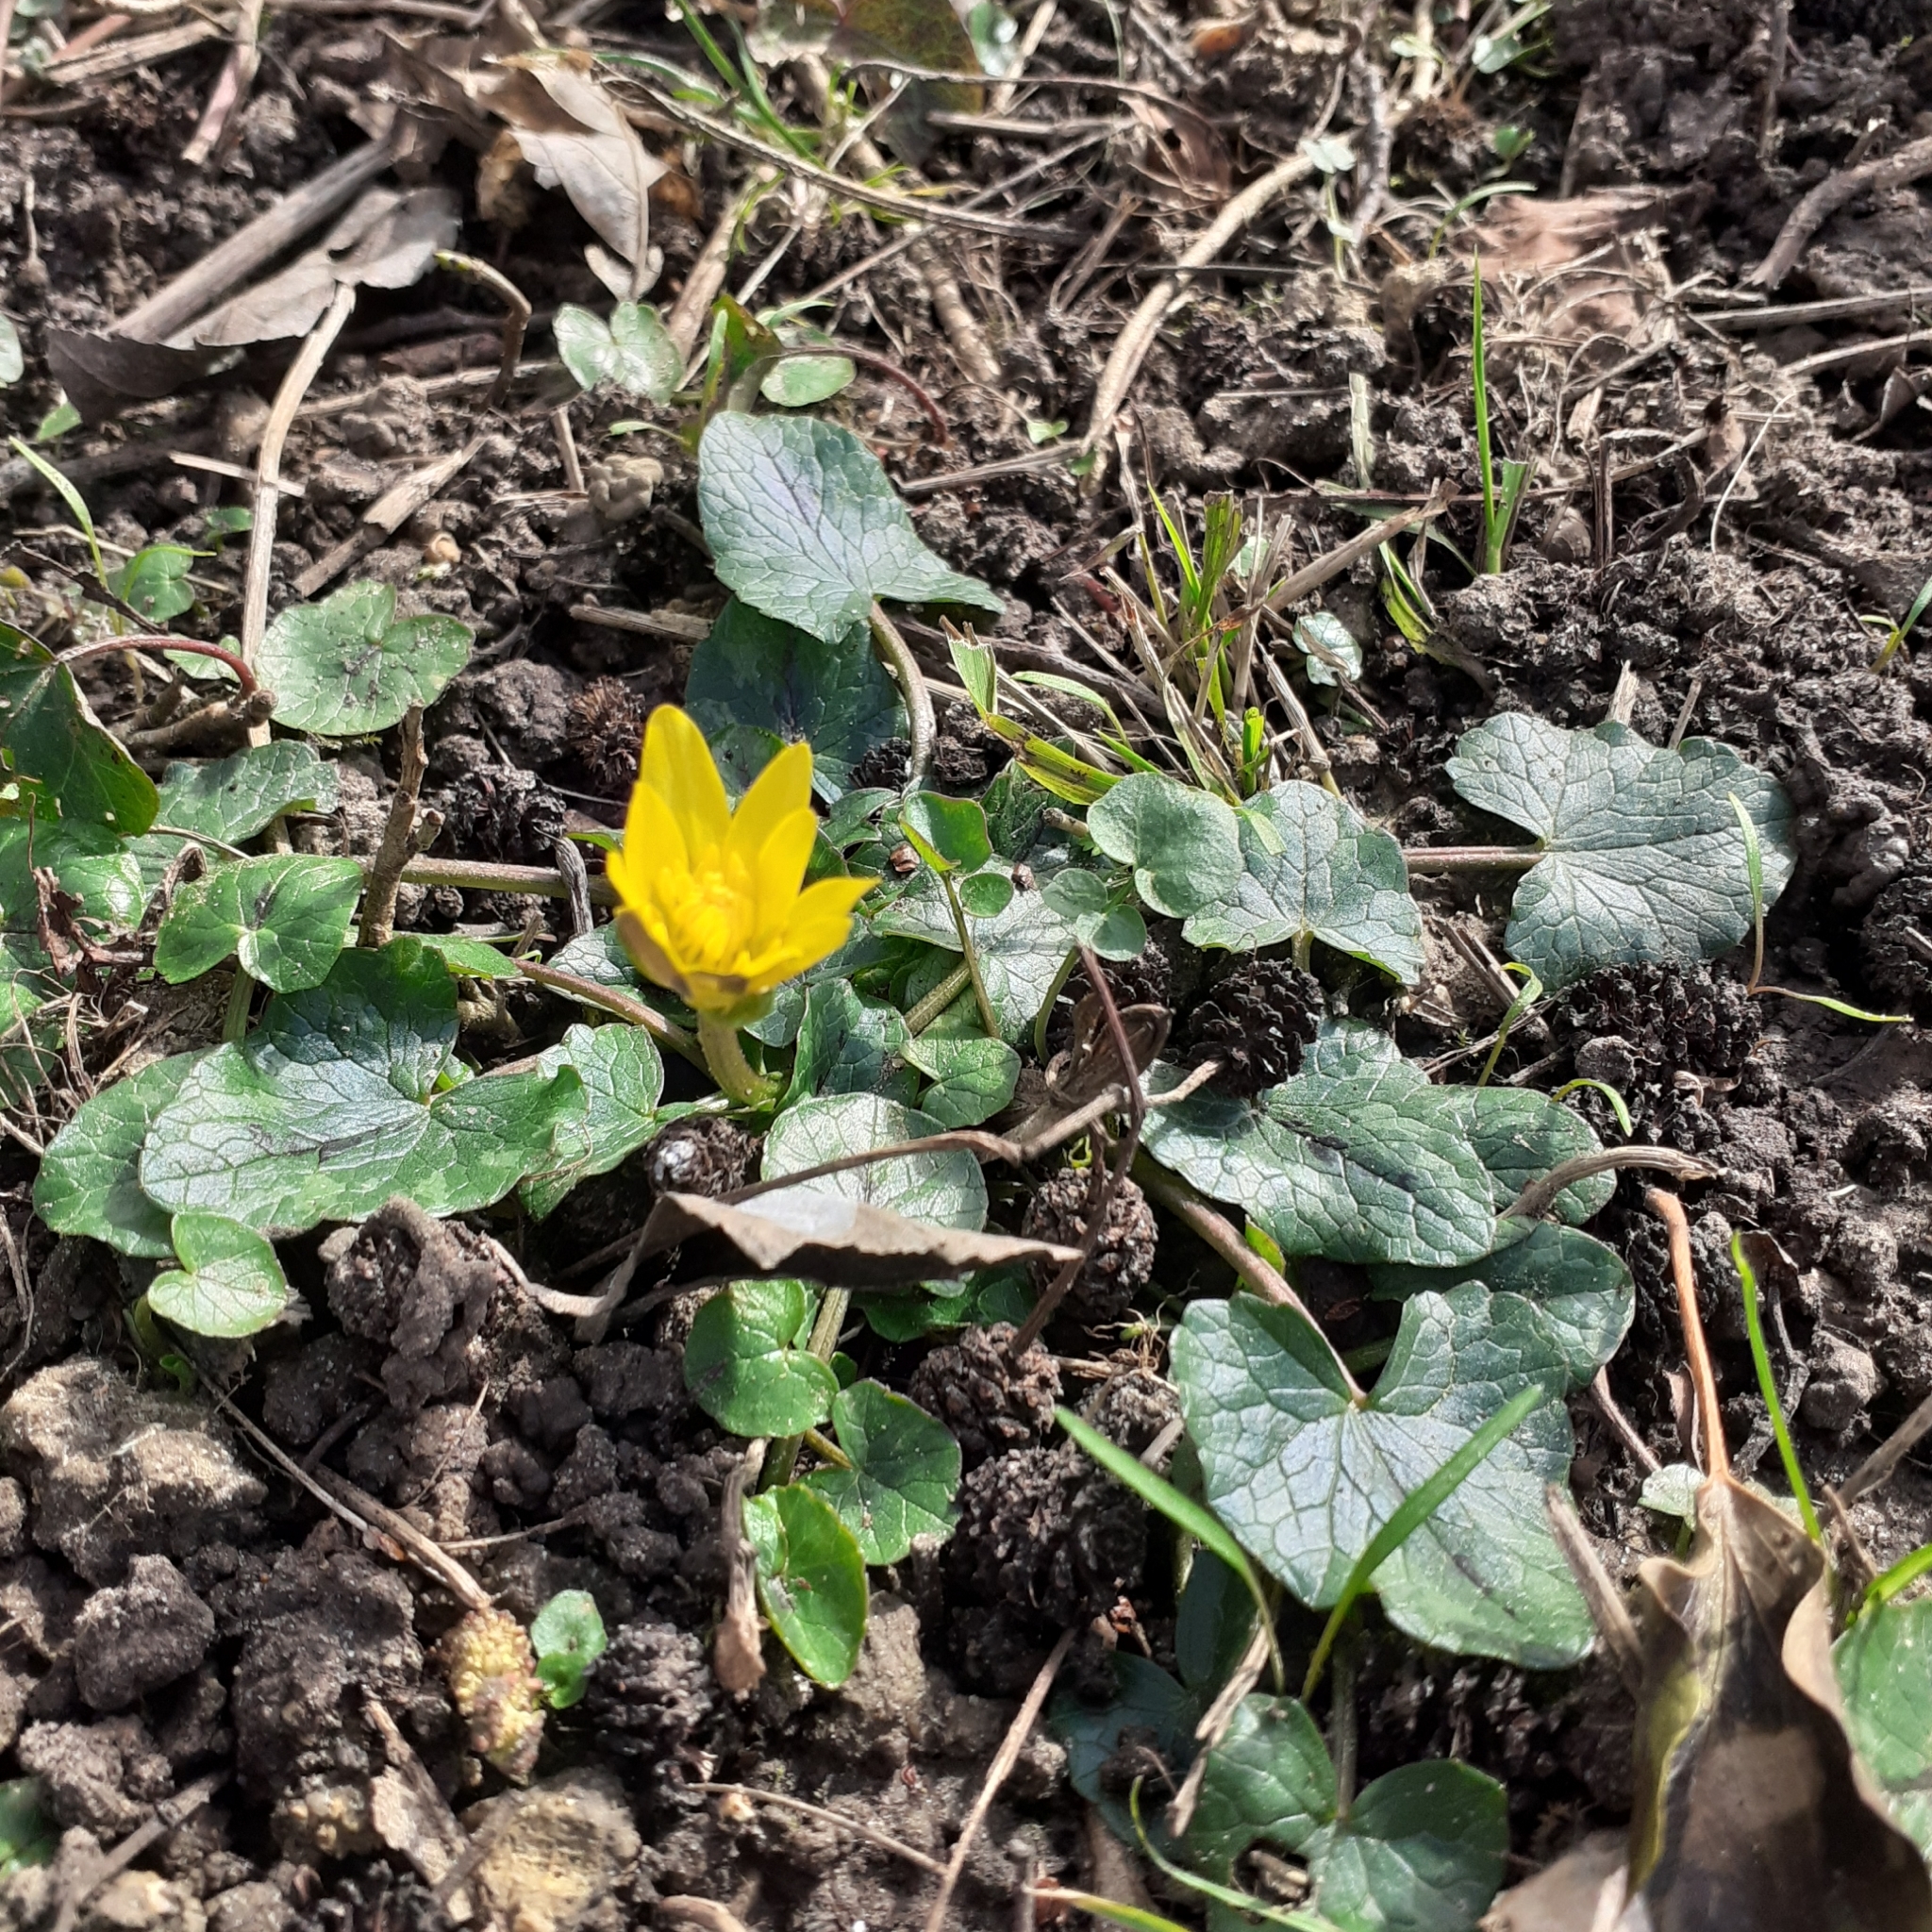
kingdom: Plantae
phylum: Tracheophyta
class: Magnoliopsida
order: Ranunculales
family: Ranunculaceae
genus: Ficaria
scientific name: Ficaria verna
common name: Lesser celandine
